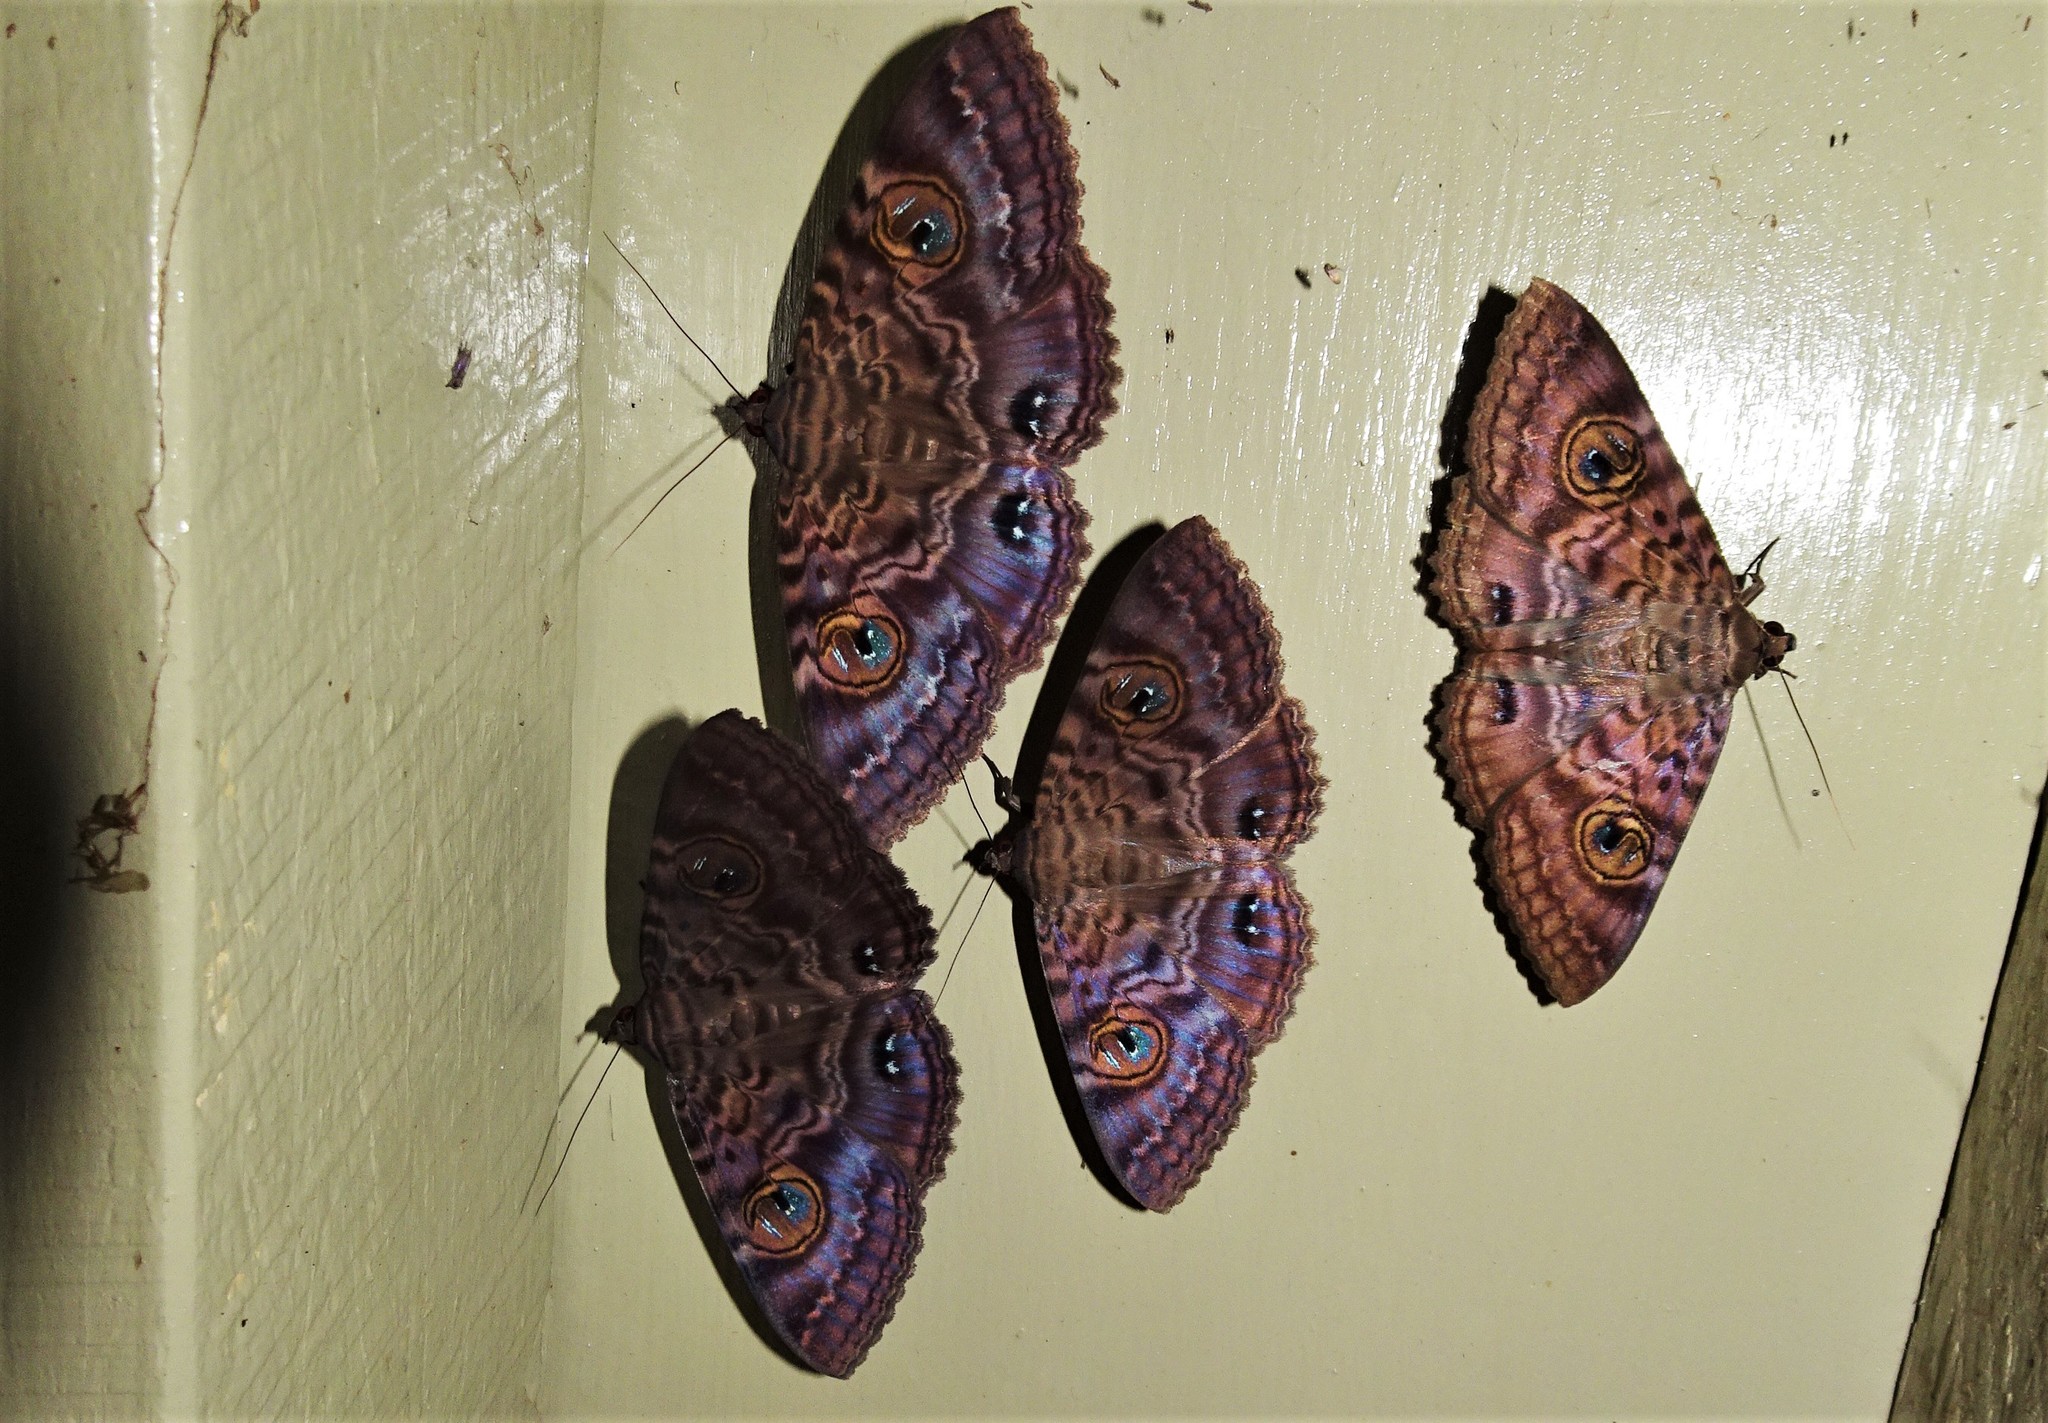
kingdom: Animalia
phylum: Arthropoda
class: Insecta
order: Lepidoptera
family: Erebidae
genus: Speiredonia
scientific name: Speiredonia spectans
